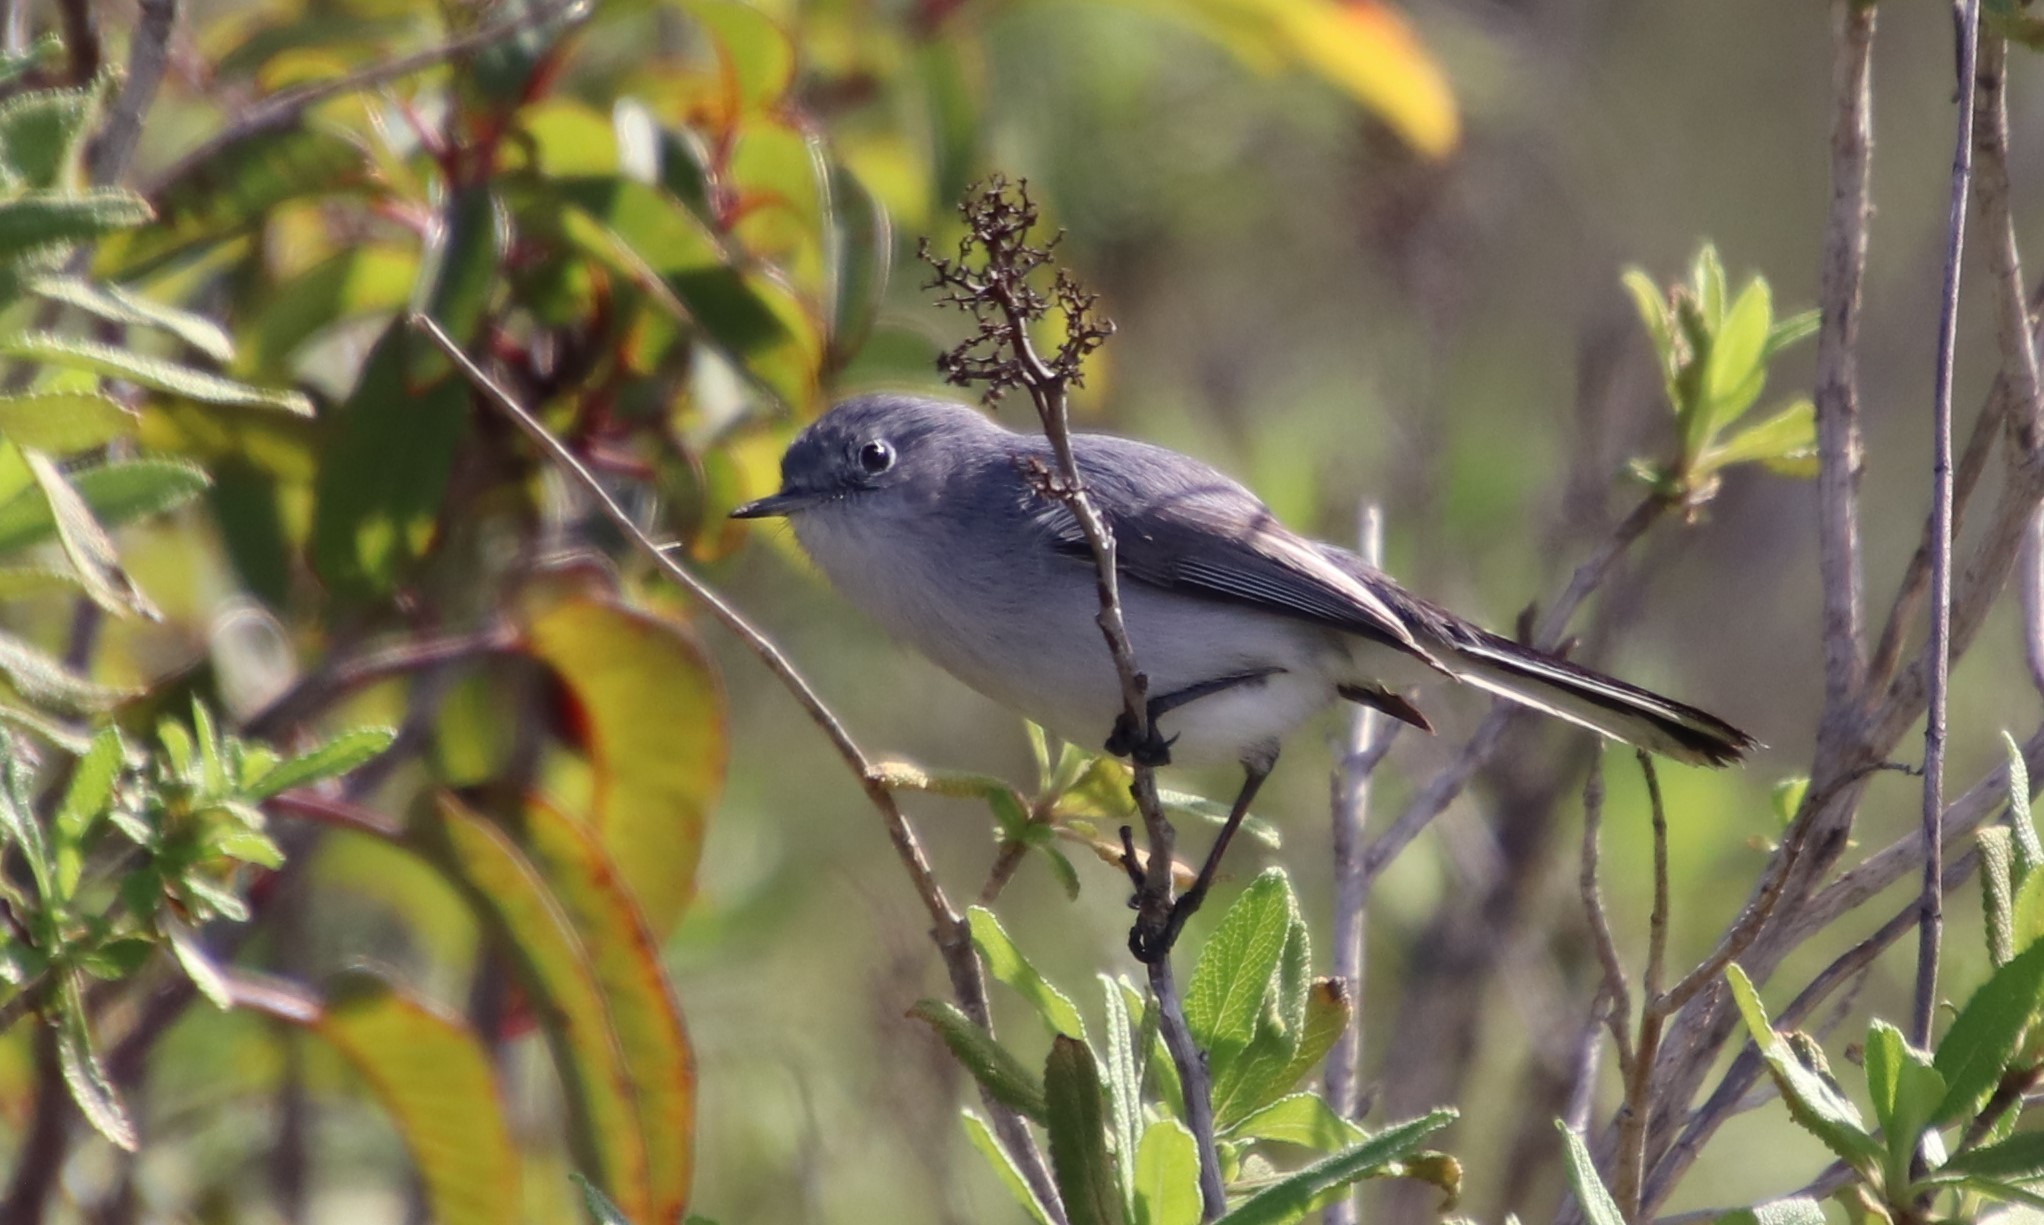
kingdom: Animalia
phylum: Chordata
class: Aves
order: Passeriformes
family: Polioptilidae
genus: Polioptila
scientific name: Polioptila caerulea
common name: Blue-gray gnatcatcher
